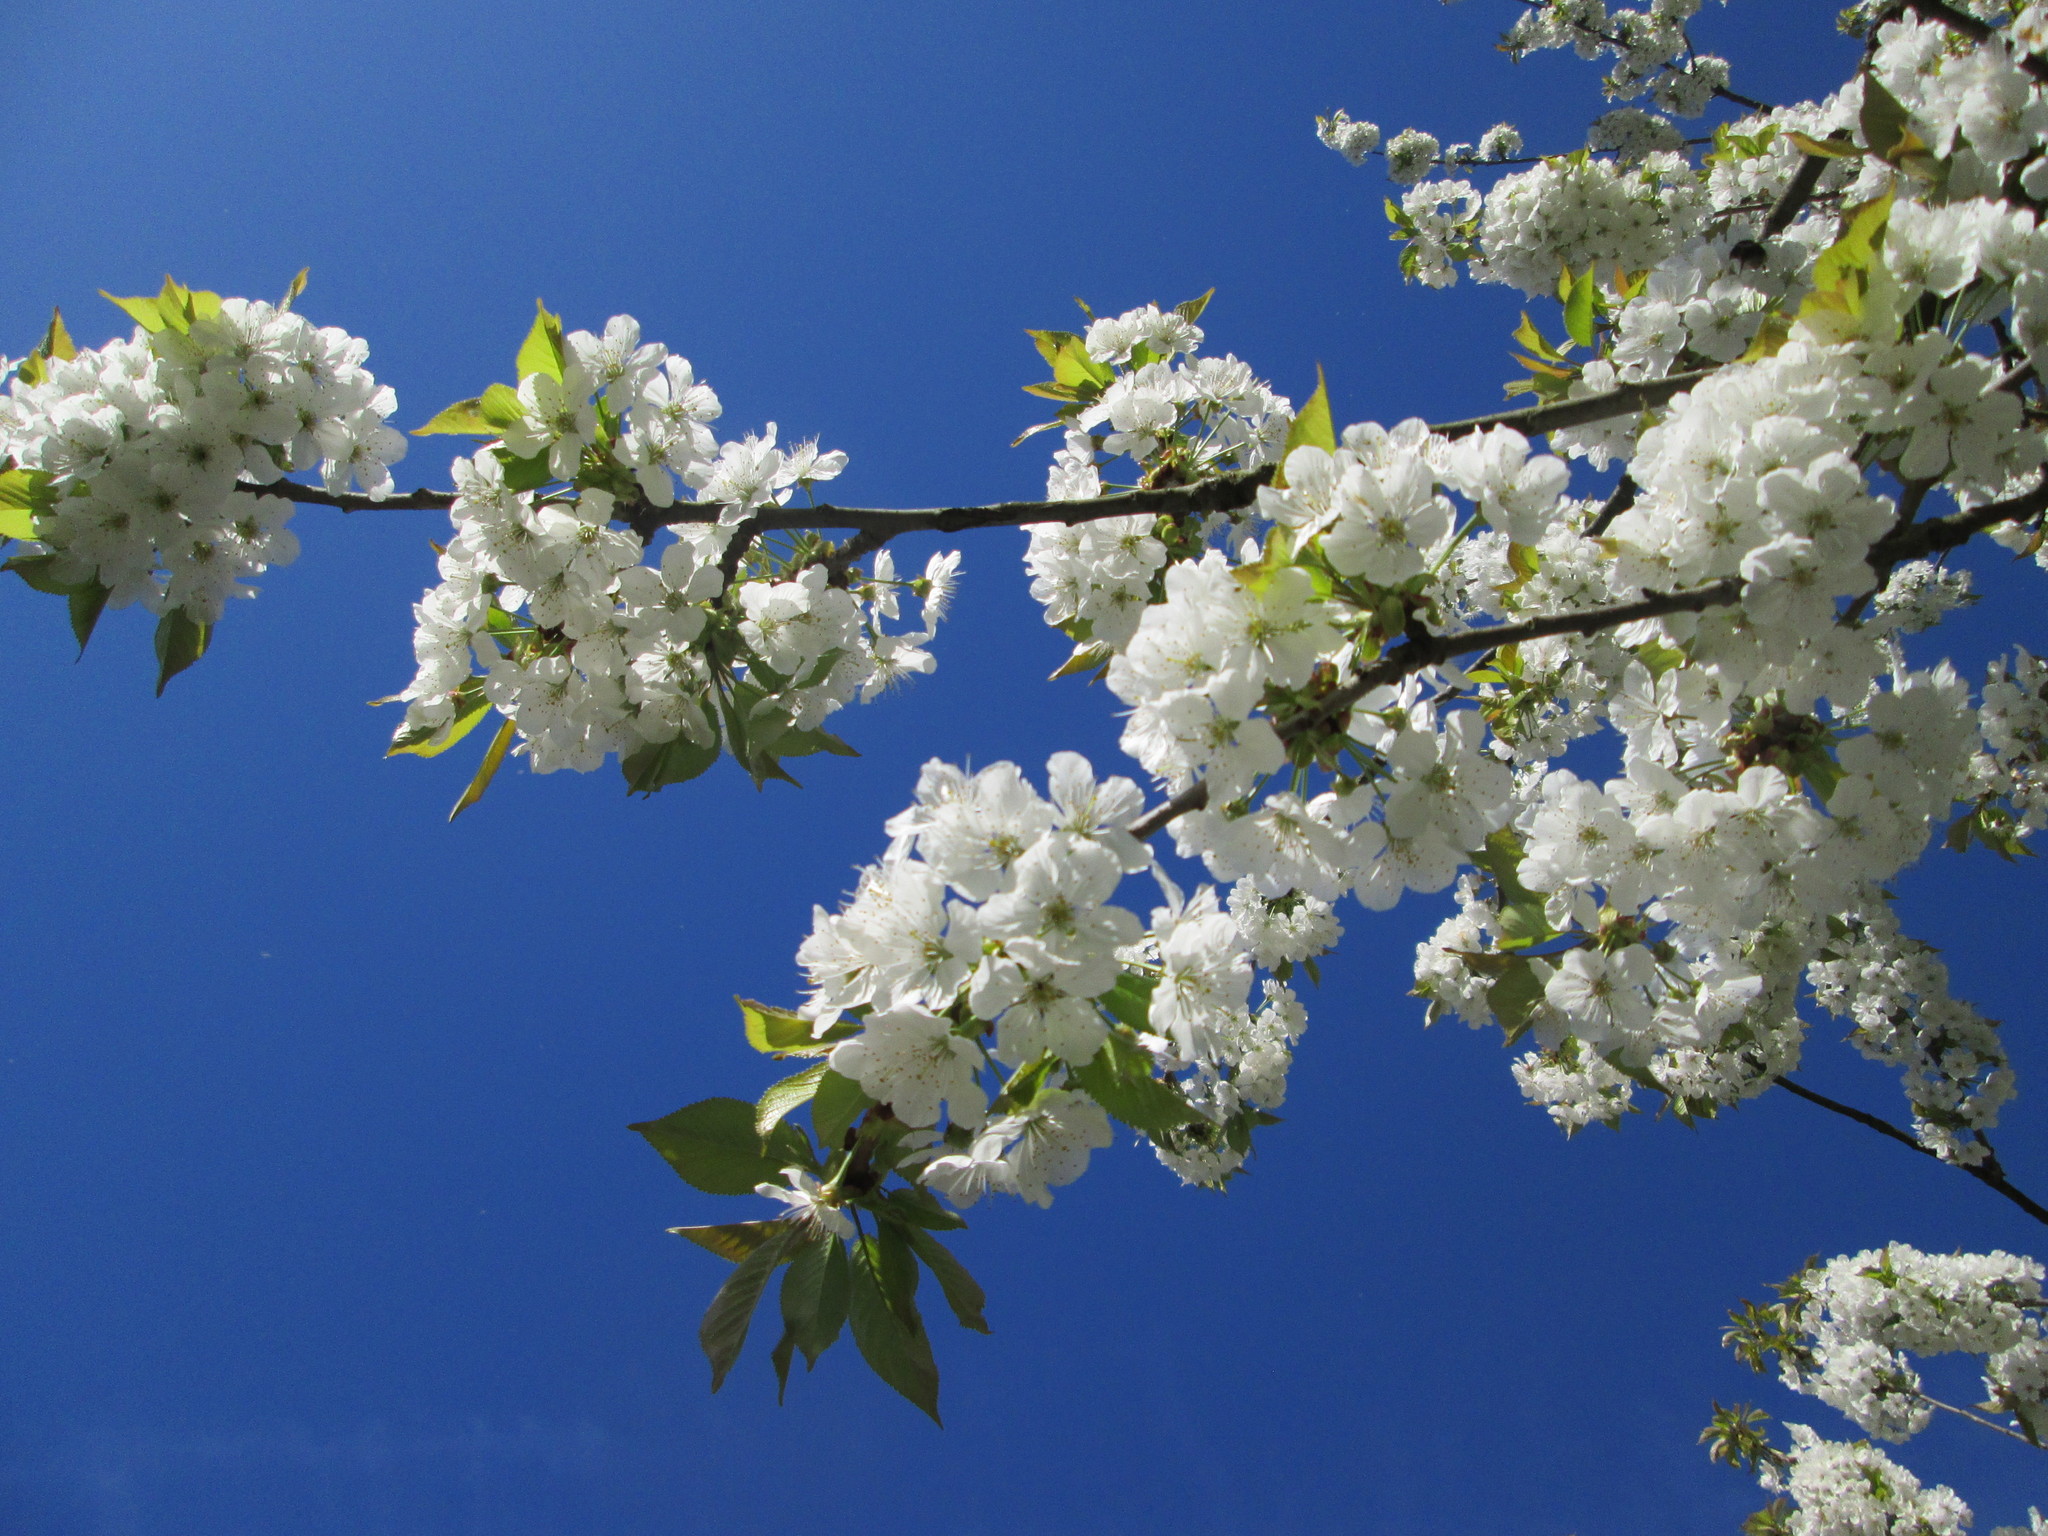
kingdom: Plantae
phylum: Tracheophyta
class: Magnoliopsida
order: Rosales
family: Rosaceae
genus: Prunus
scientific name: Prunus avium
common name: Sweet cherry
